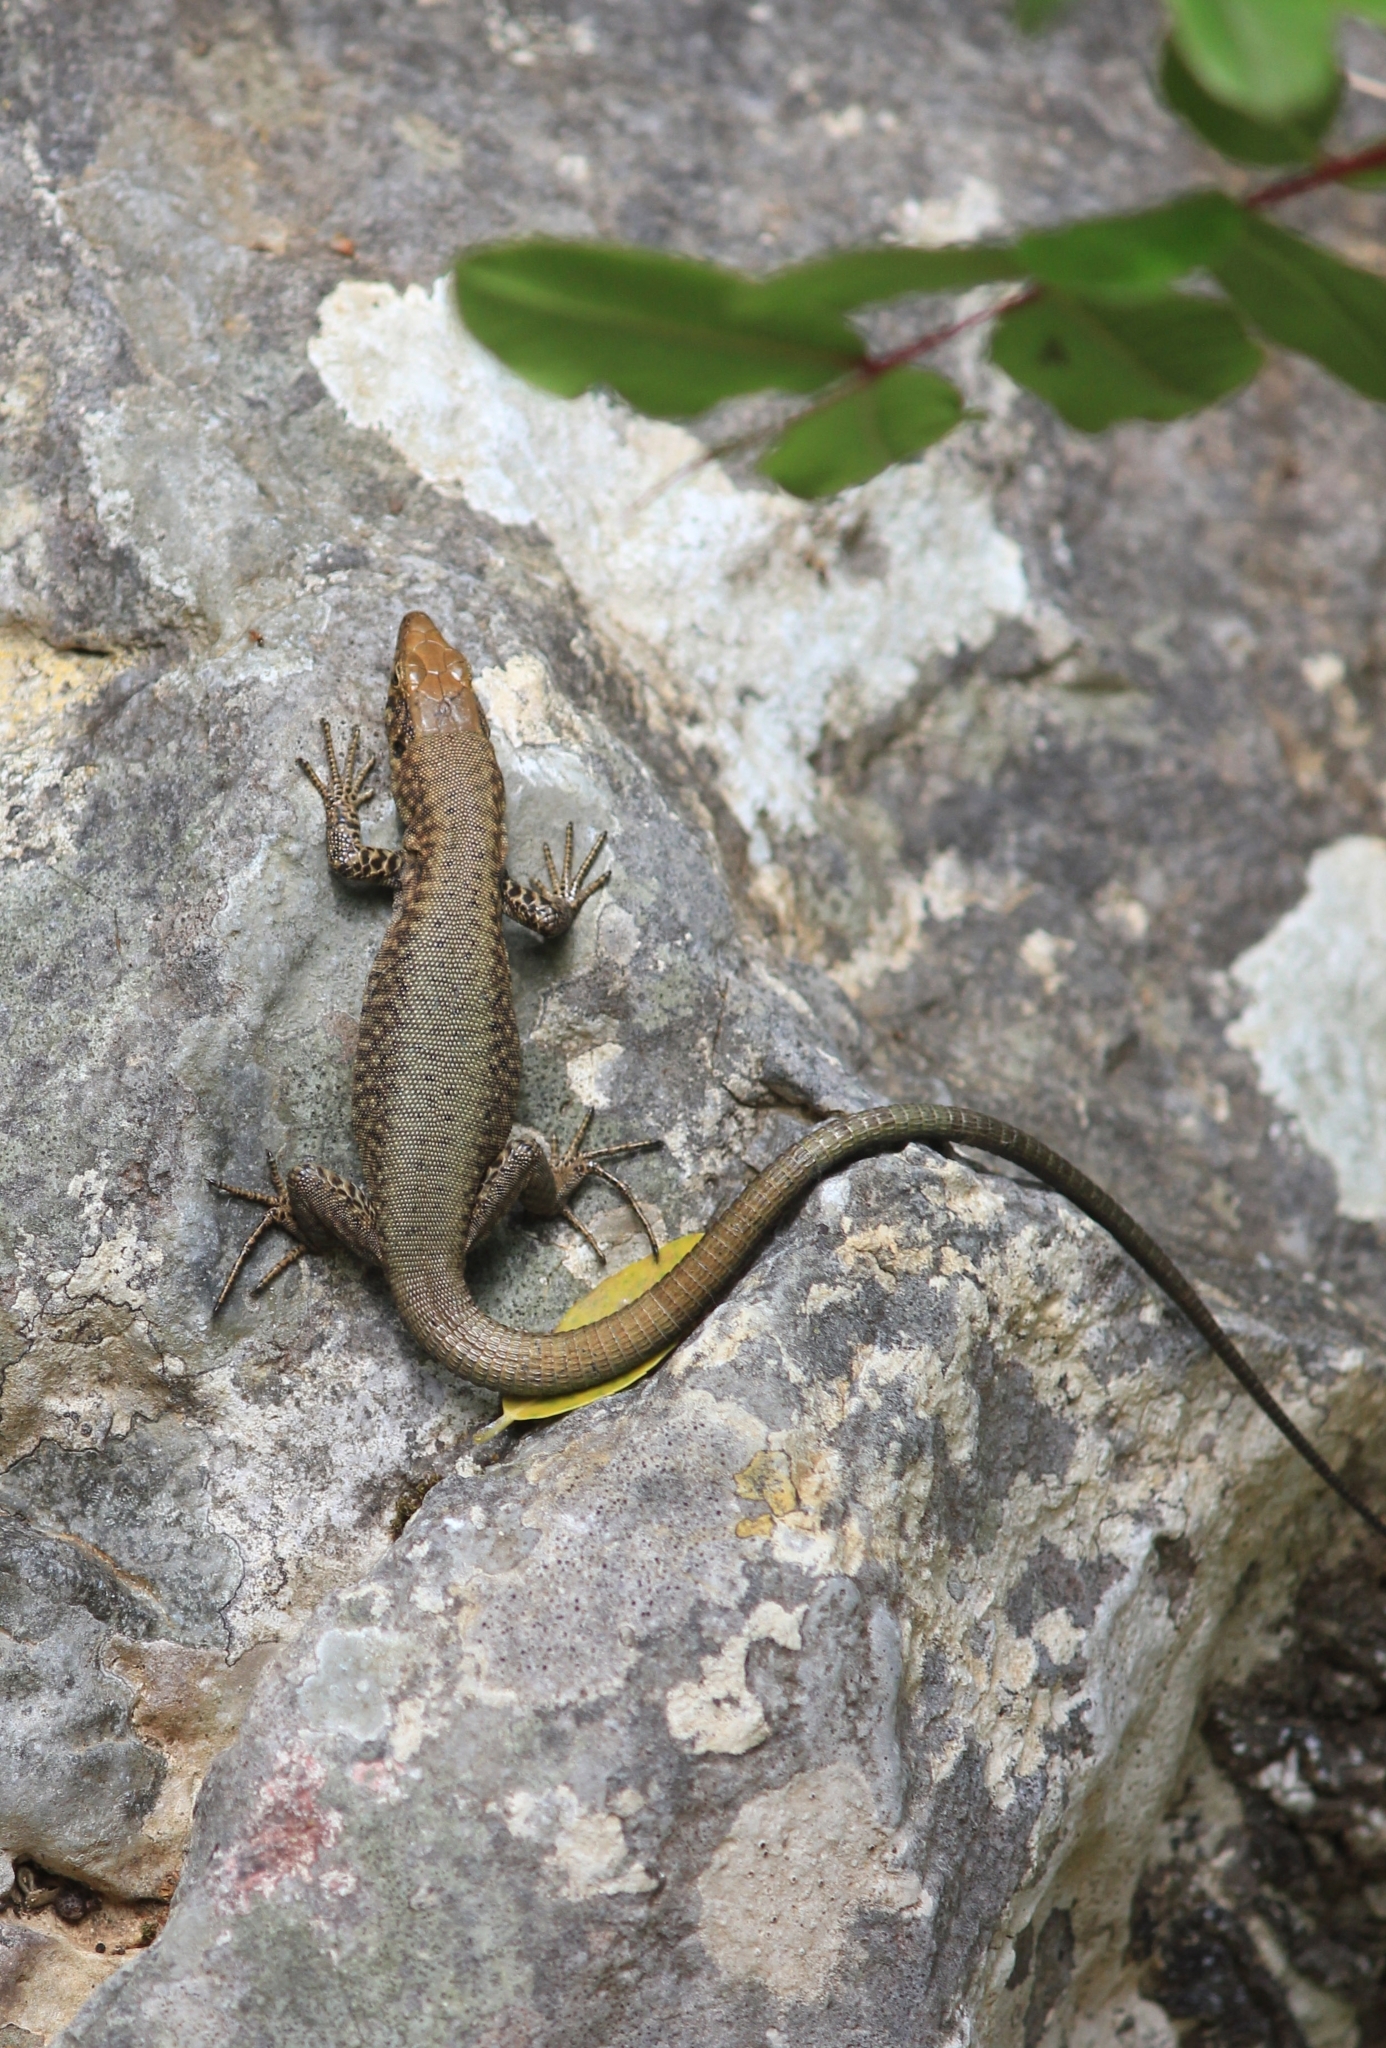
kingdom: Animalia
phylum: Chordata
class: Squamata
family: Lacertidae
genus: Hellenolacerta
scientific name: Hellenolacerta graeca
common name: Greek rock lizard
